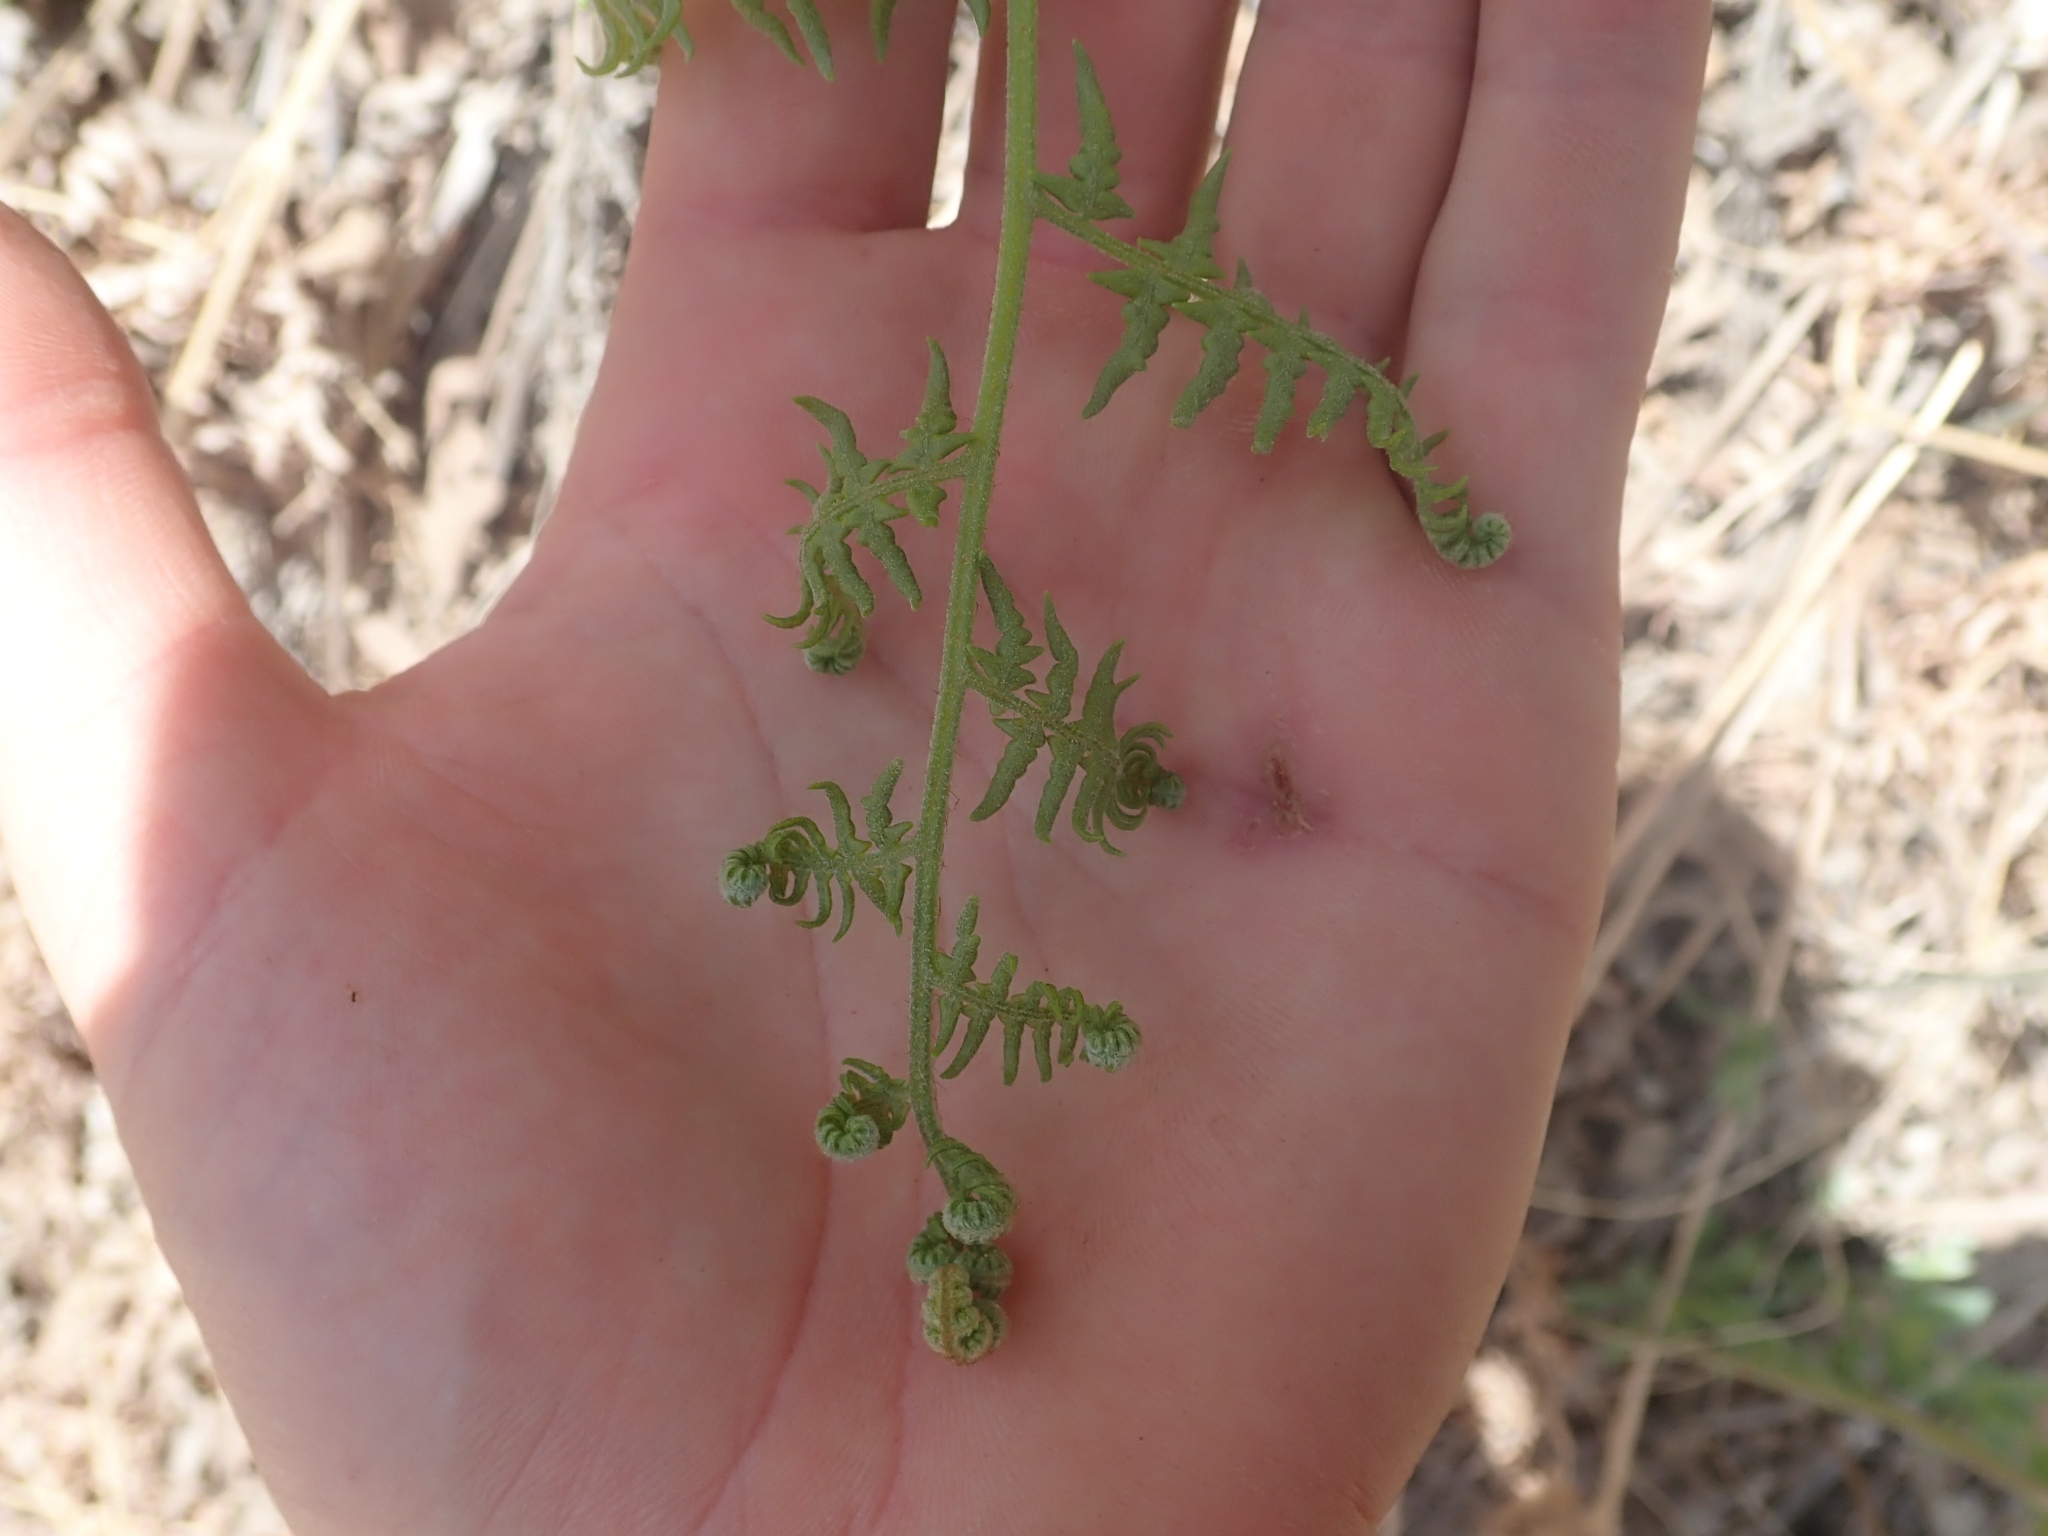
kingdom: Plantae
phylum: Tracheophyta
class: Polypodiopsida
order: Polypodiales
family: Dennstaedtiaceae
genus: Pteridium
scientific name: Pteridium aquilinum
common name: Bracken
